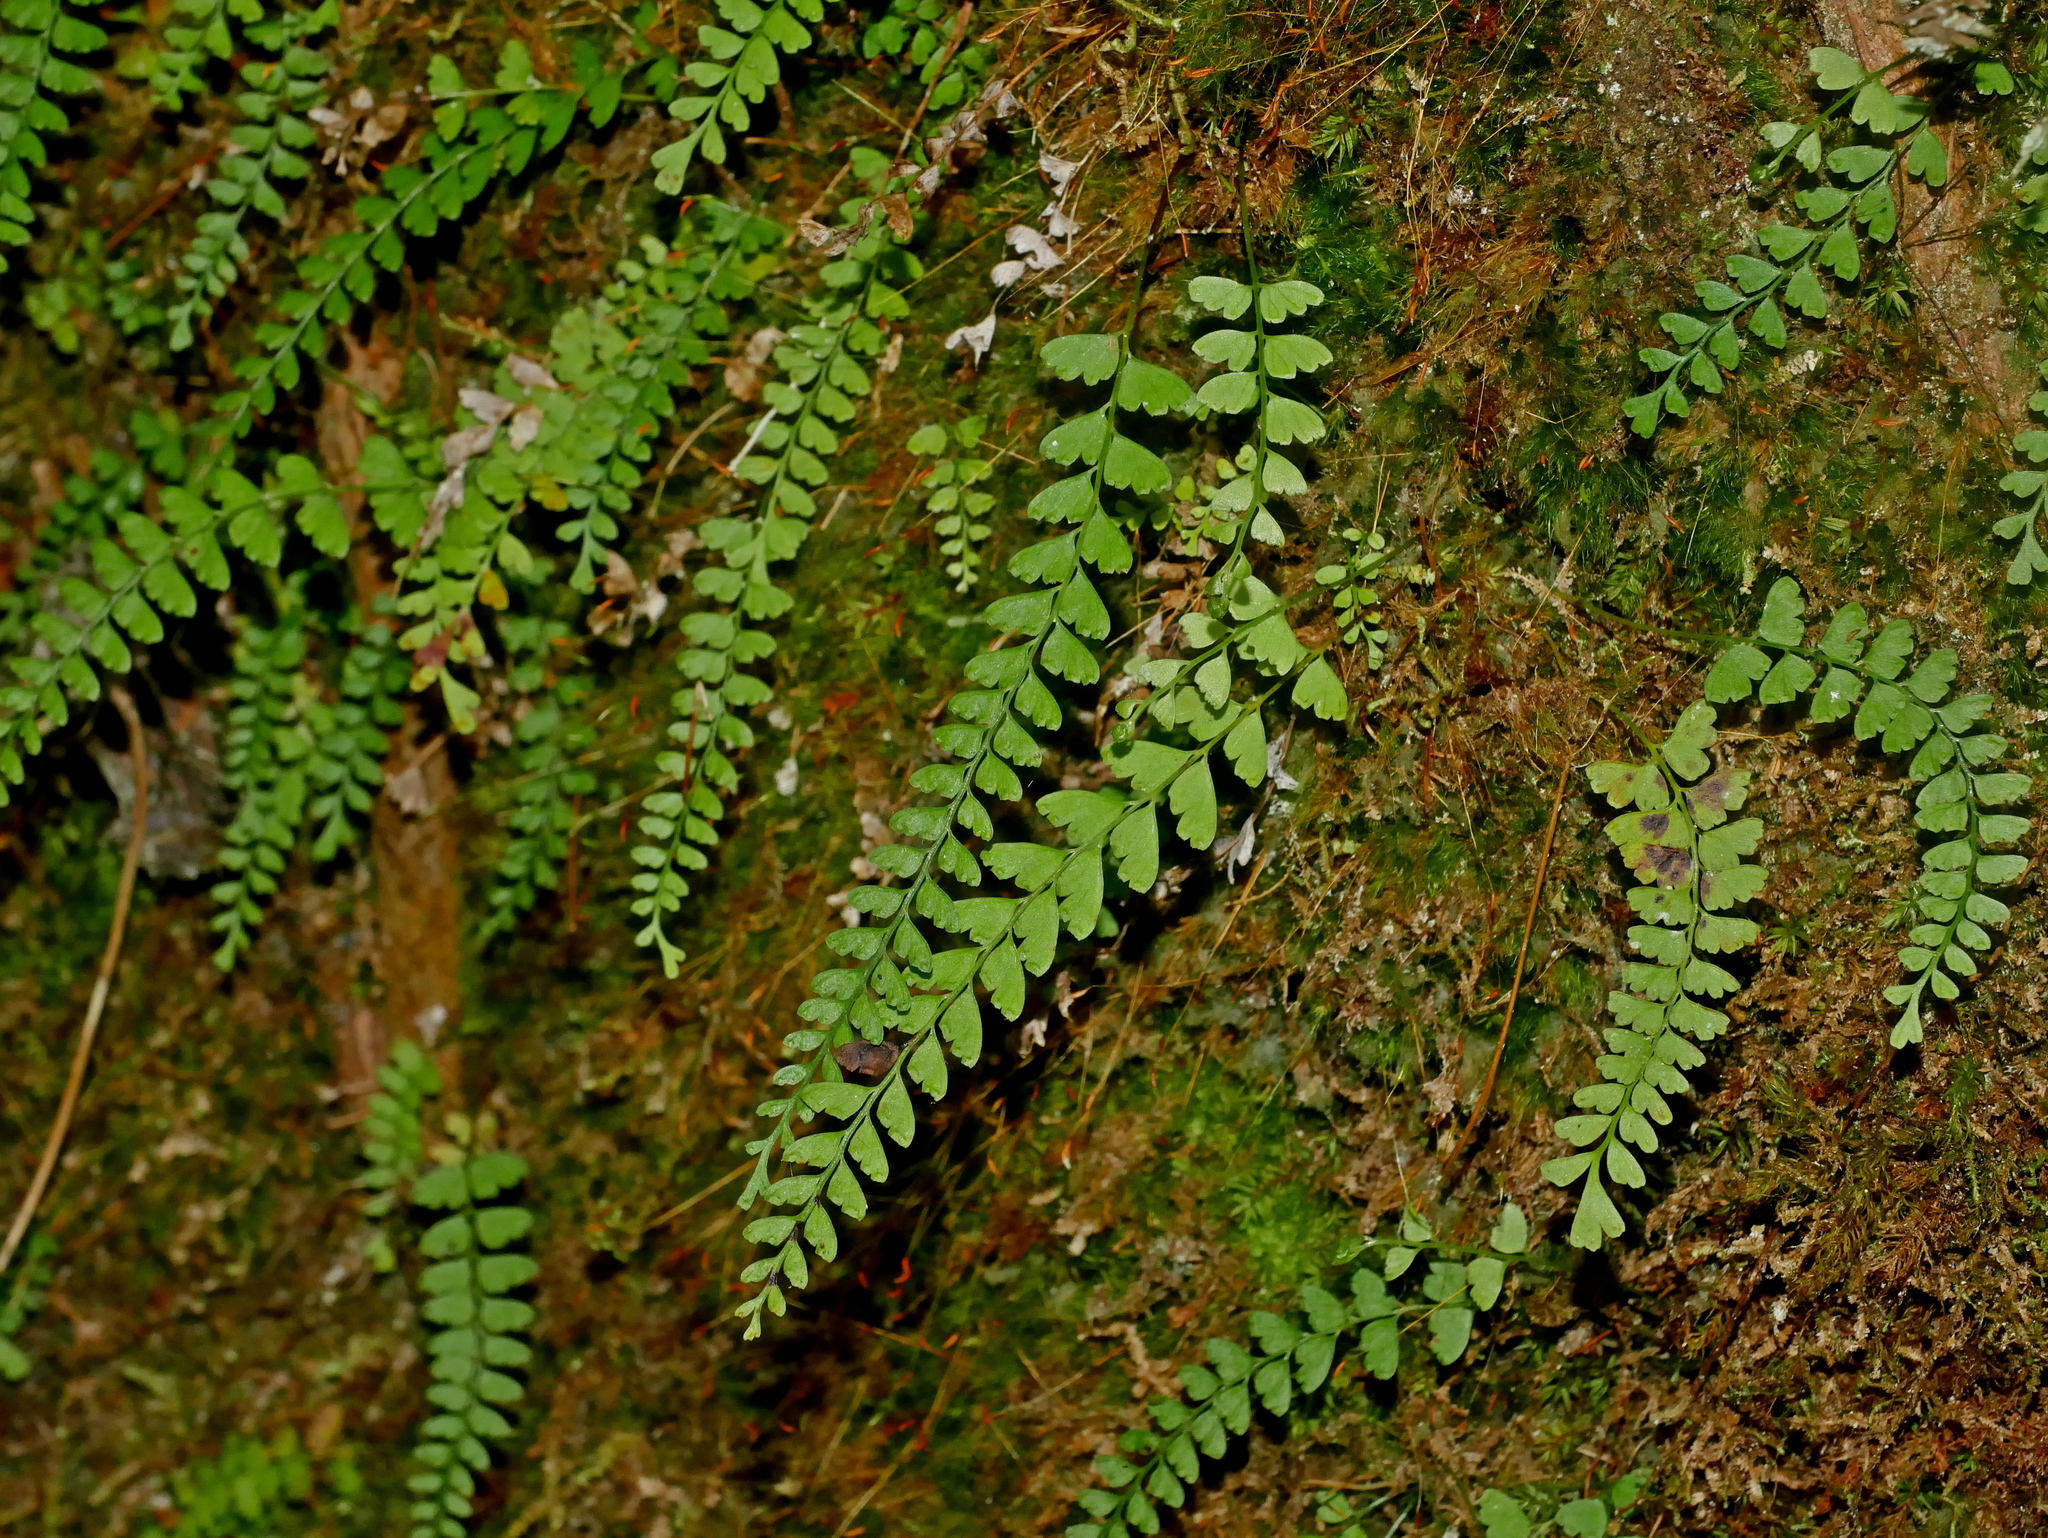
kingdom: Plantae
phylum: Tracheophyta
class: Polypodiopsida
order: Polypodiales
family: Lindsaeaceae
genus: Osmolindsaea
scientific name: Osmolindsaea odorata
